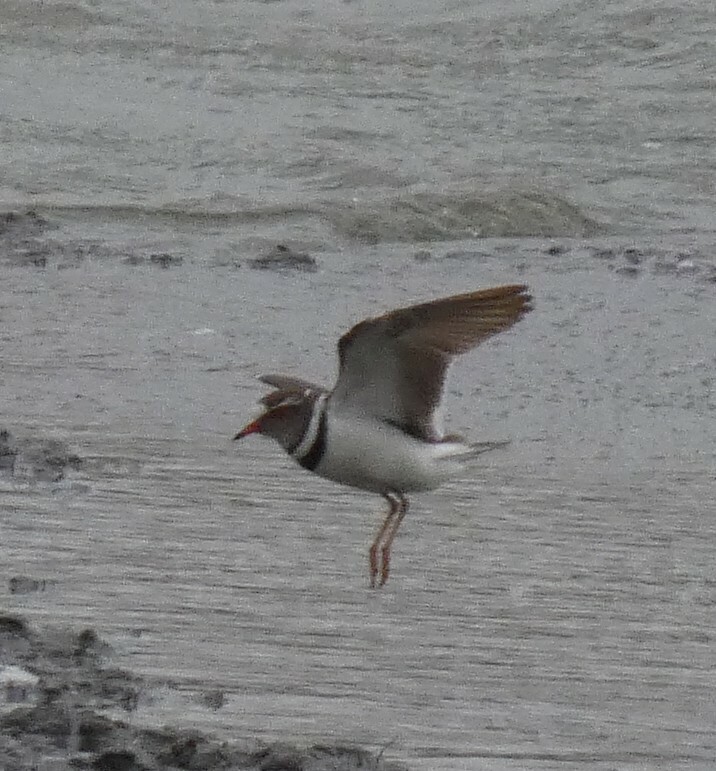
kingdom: Animalia
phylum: Chordata
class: Aves
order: Charadriiformes
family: Charadriidae
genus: Charadrius
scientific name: Charadrius tricollaris
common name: Three-banded plover
